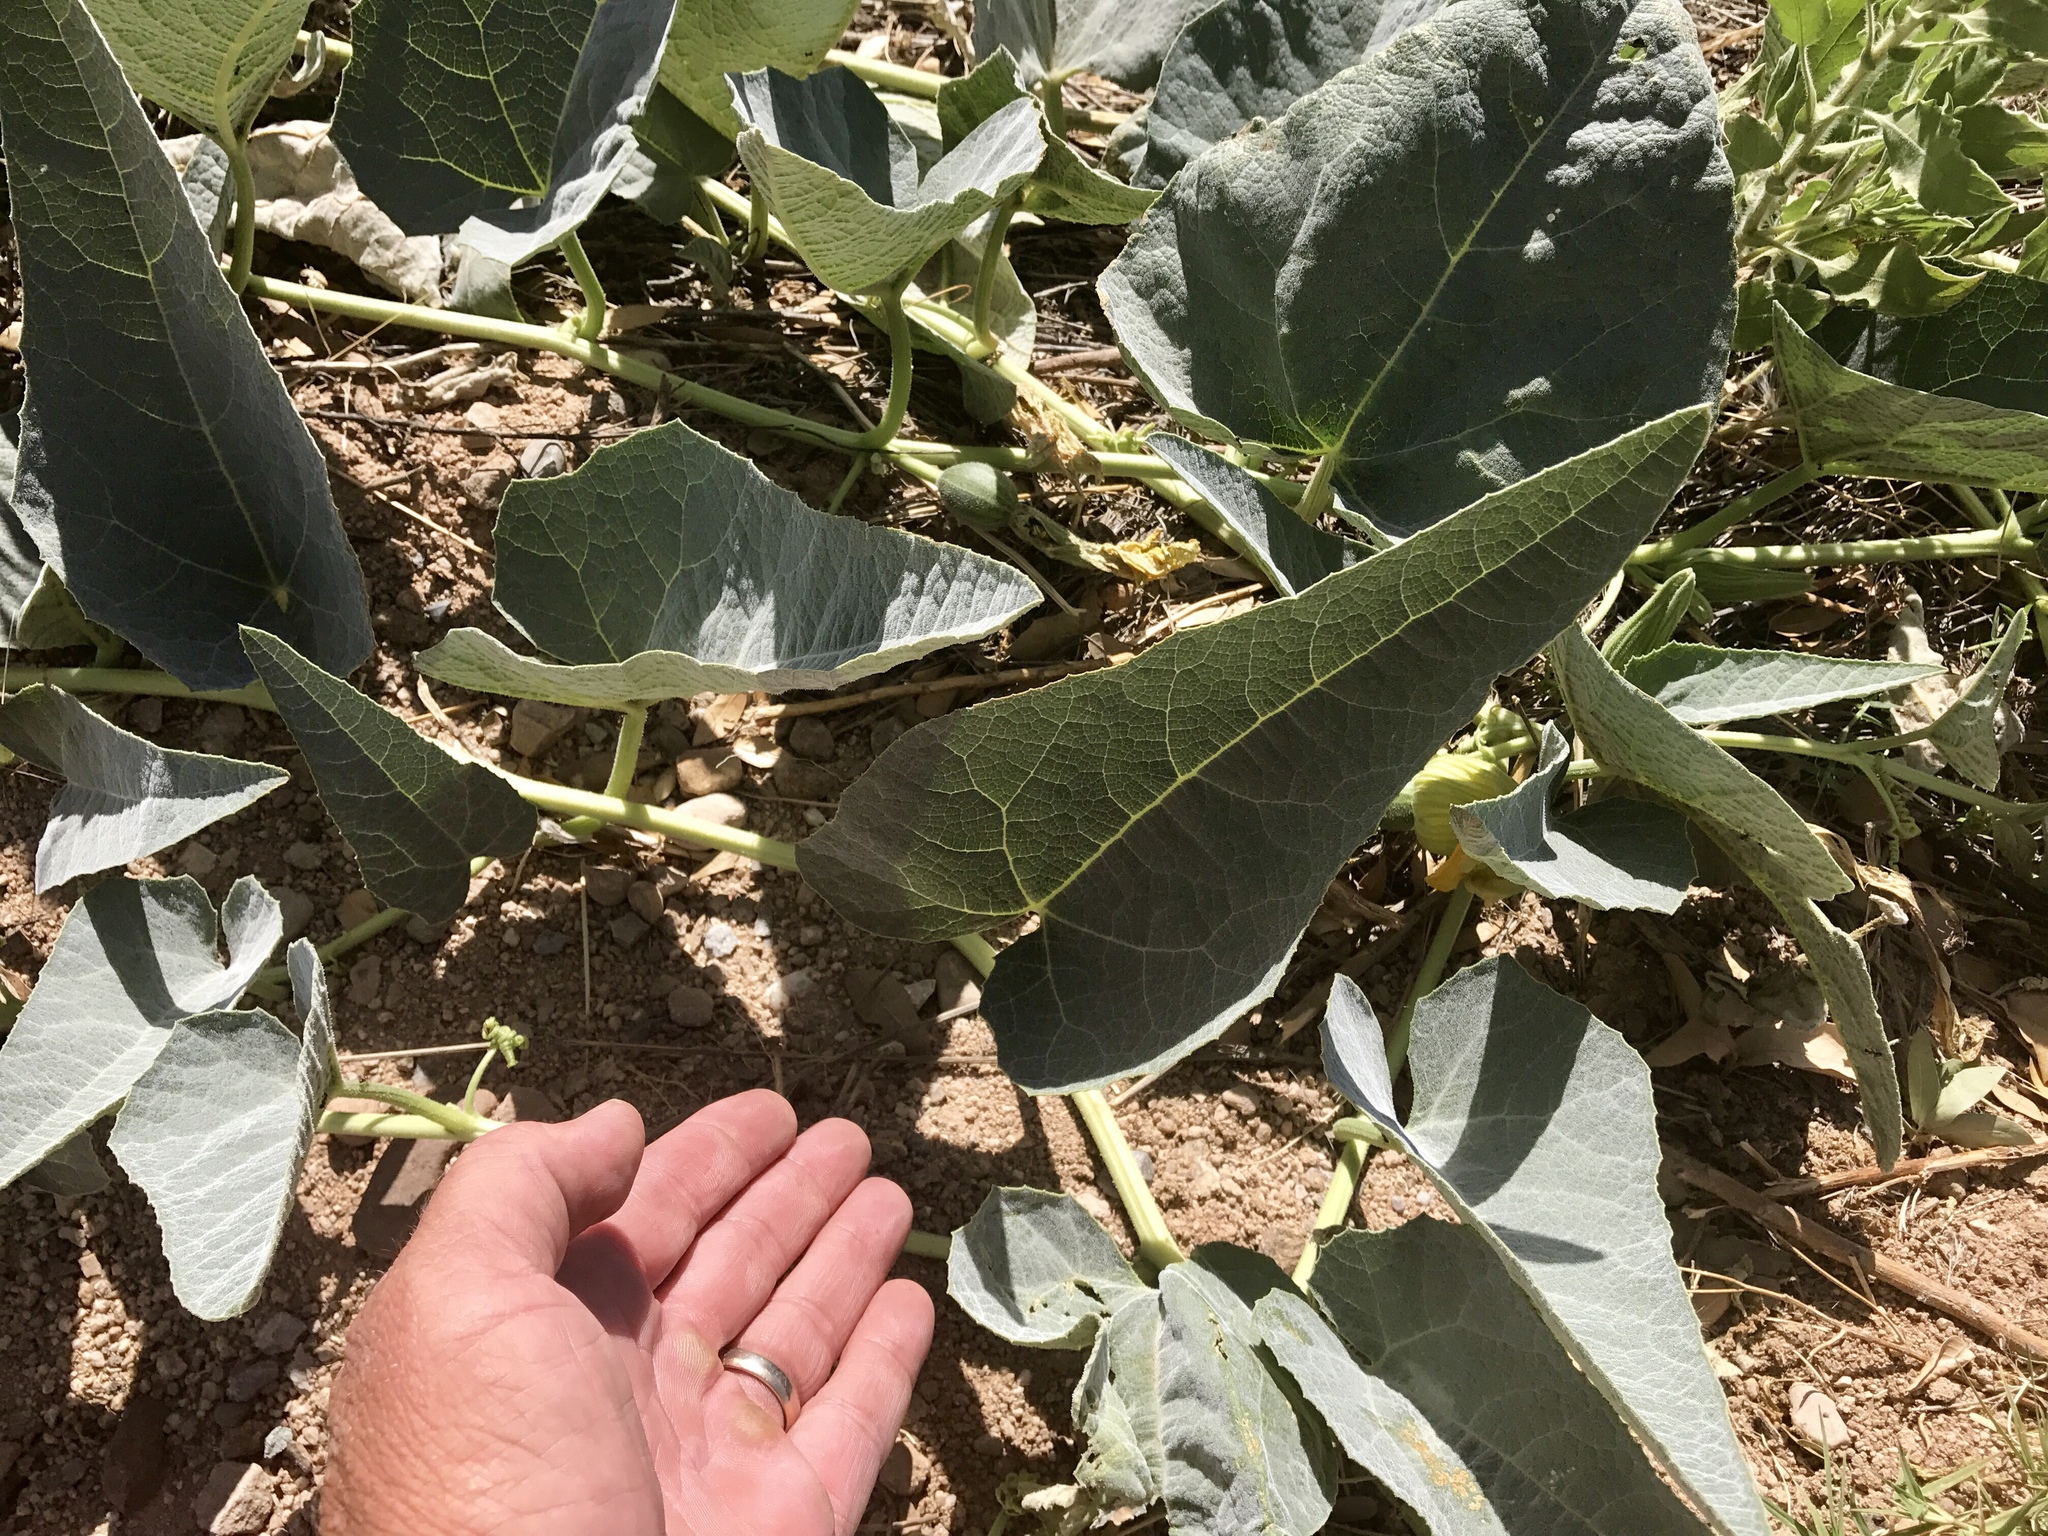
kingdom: Plantae
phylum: Tracheophyta
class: Magnoliopsida
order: Cucurbitales
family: Cucurbitaceae
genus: Cucurbita
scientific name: Cucurbita foetidissima
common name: Buffalo gourd
